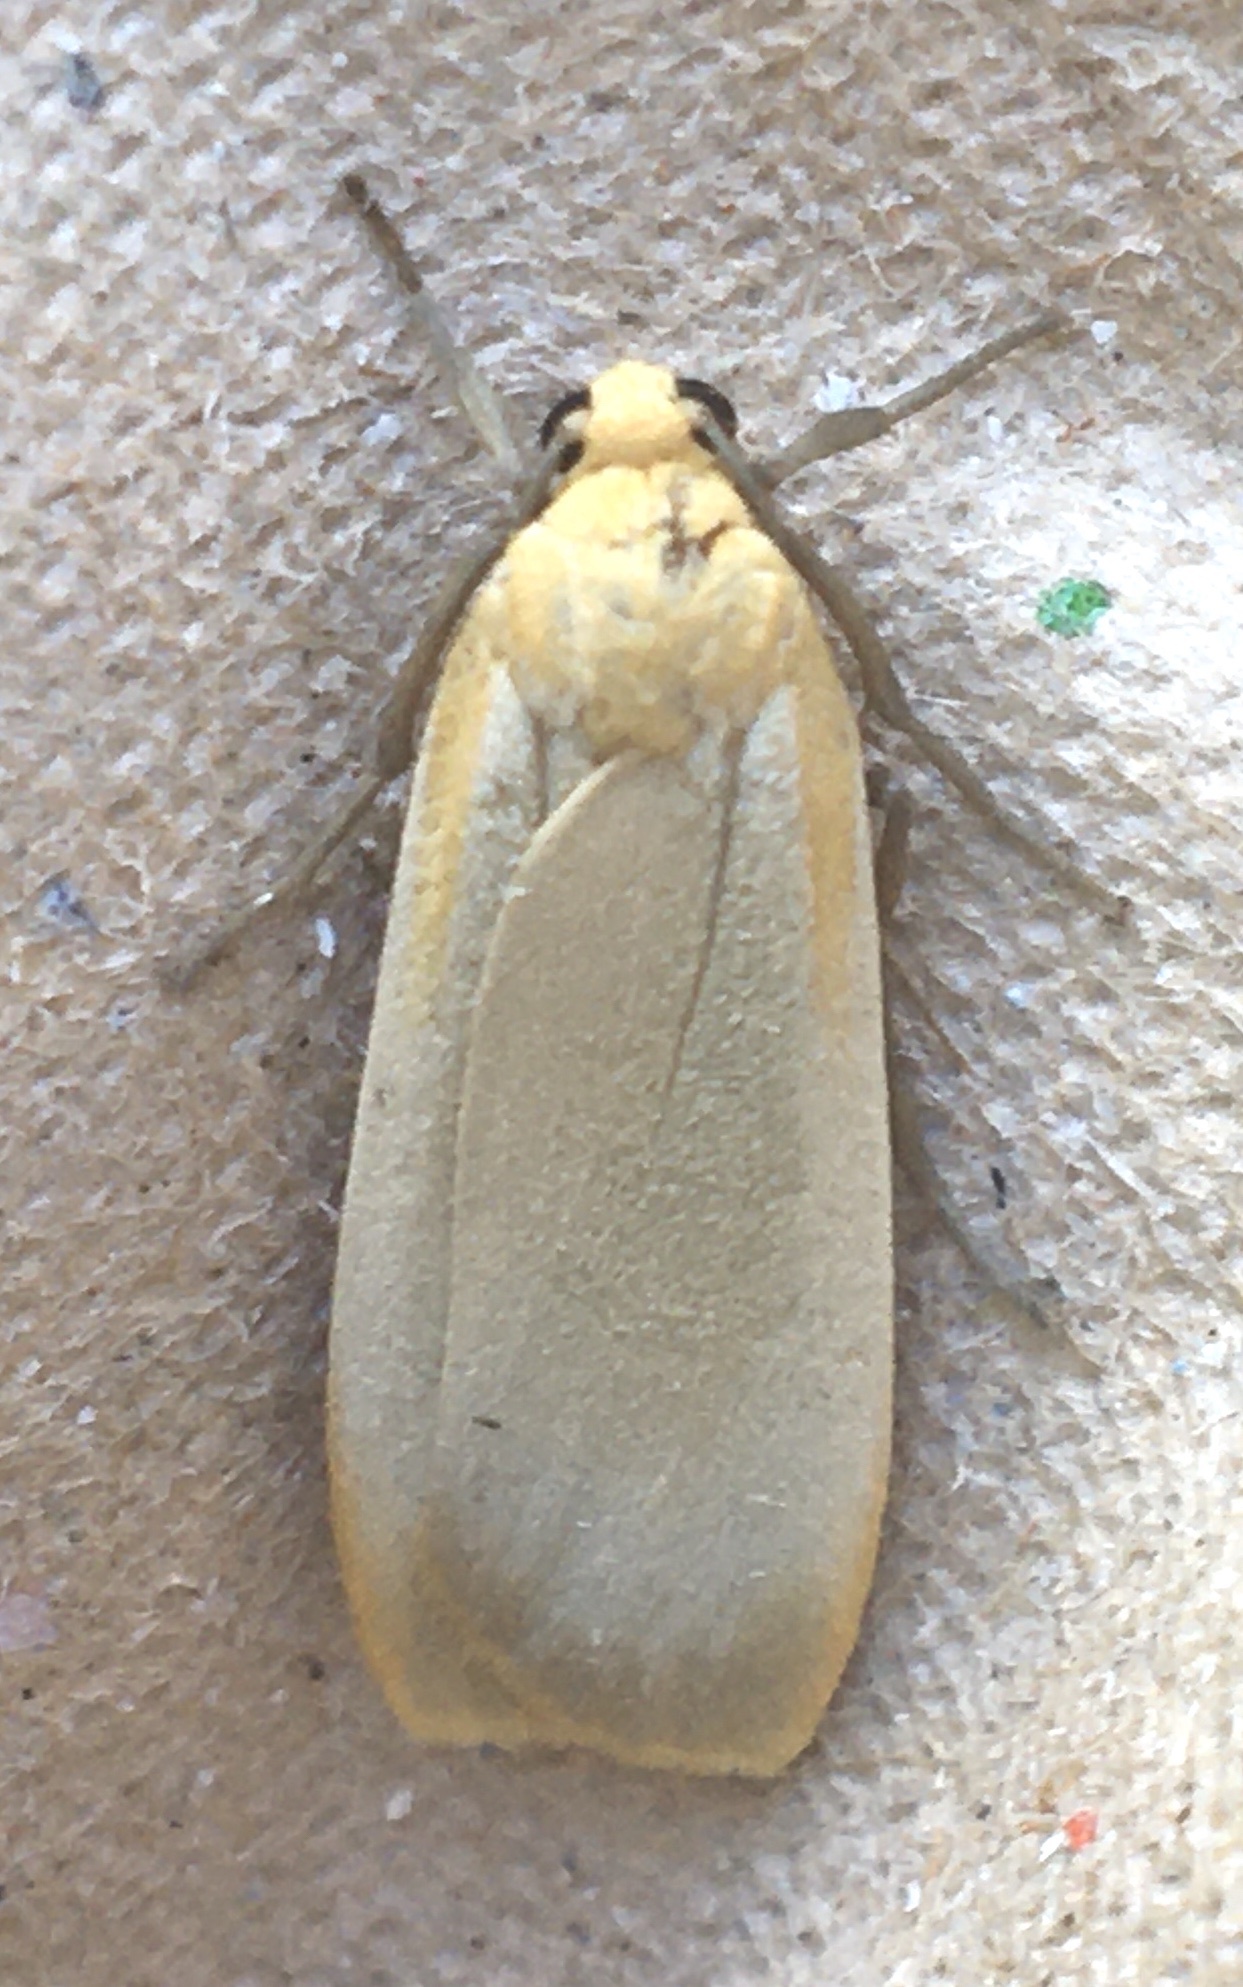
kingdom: Animalia
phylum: Arthropoda
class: Insecta
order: Lepidoptera
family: Erebidae
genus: Katha
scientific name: Katha depressa
